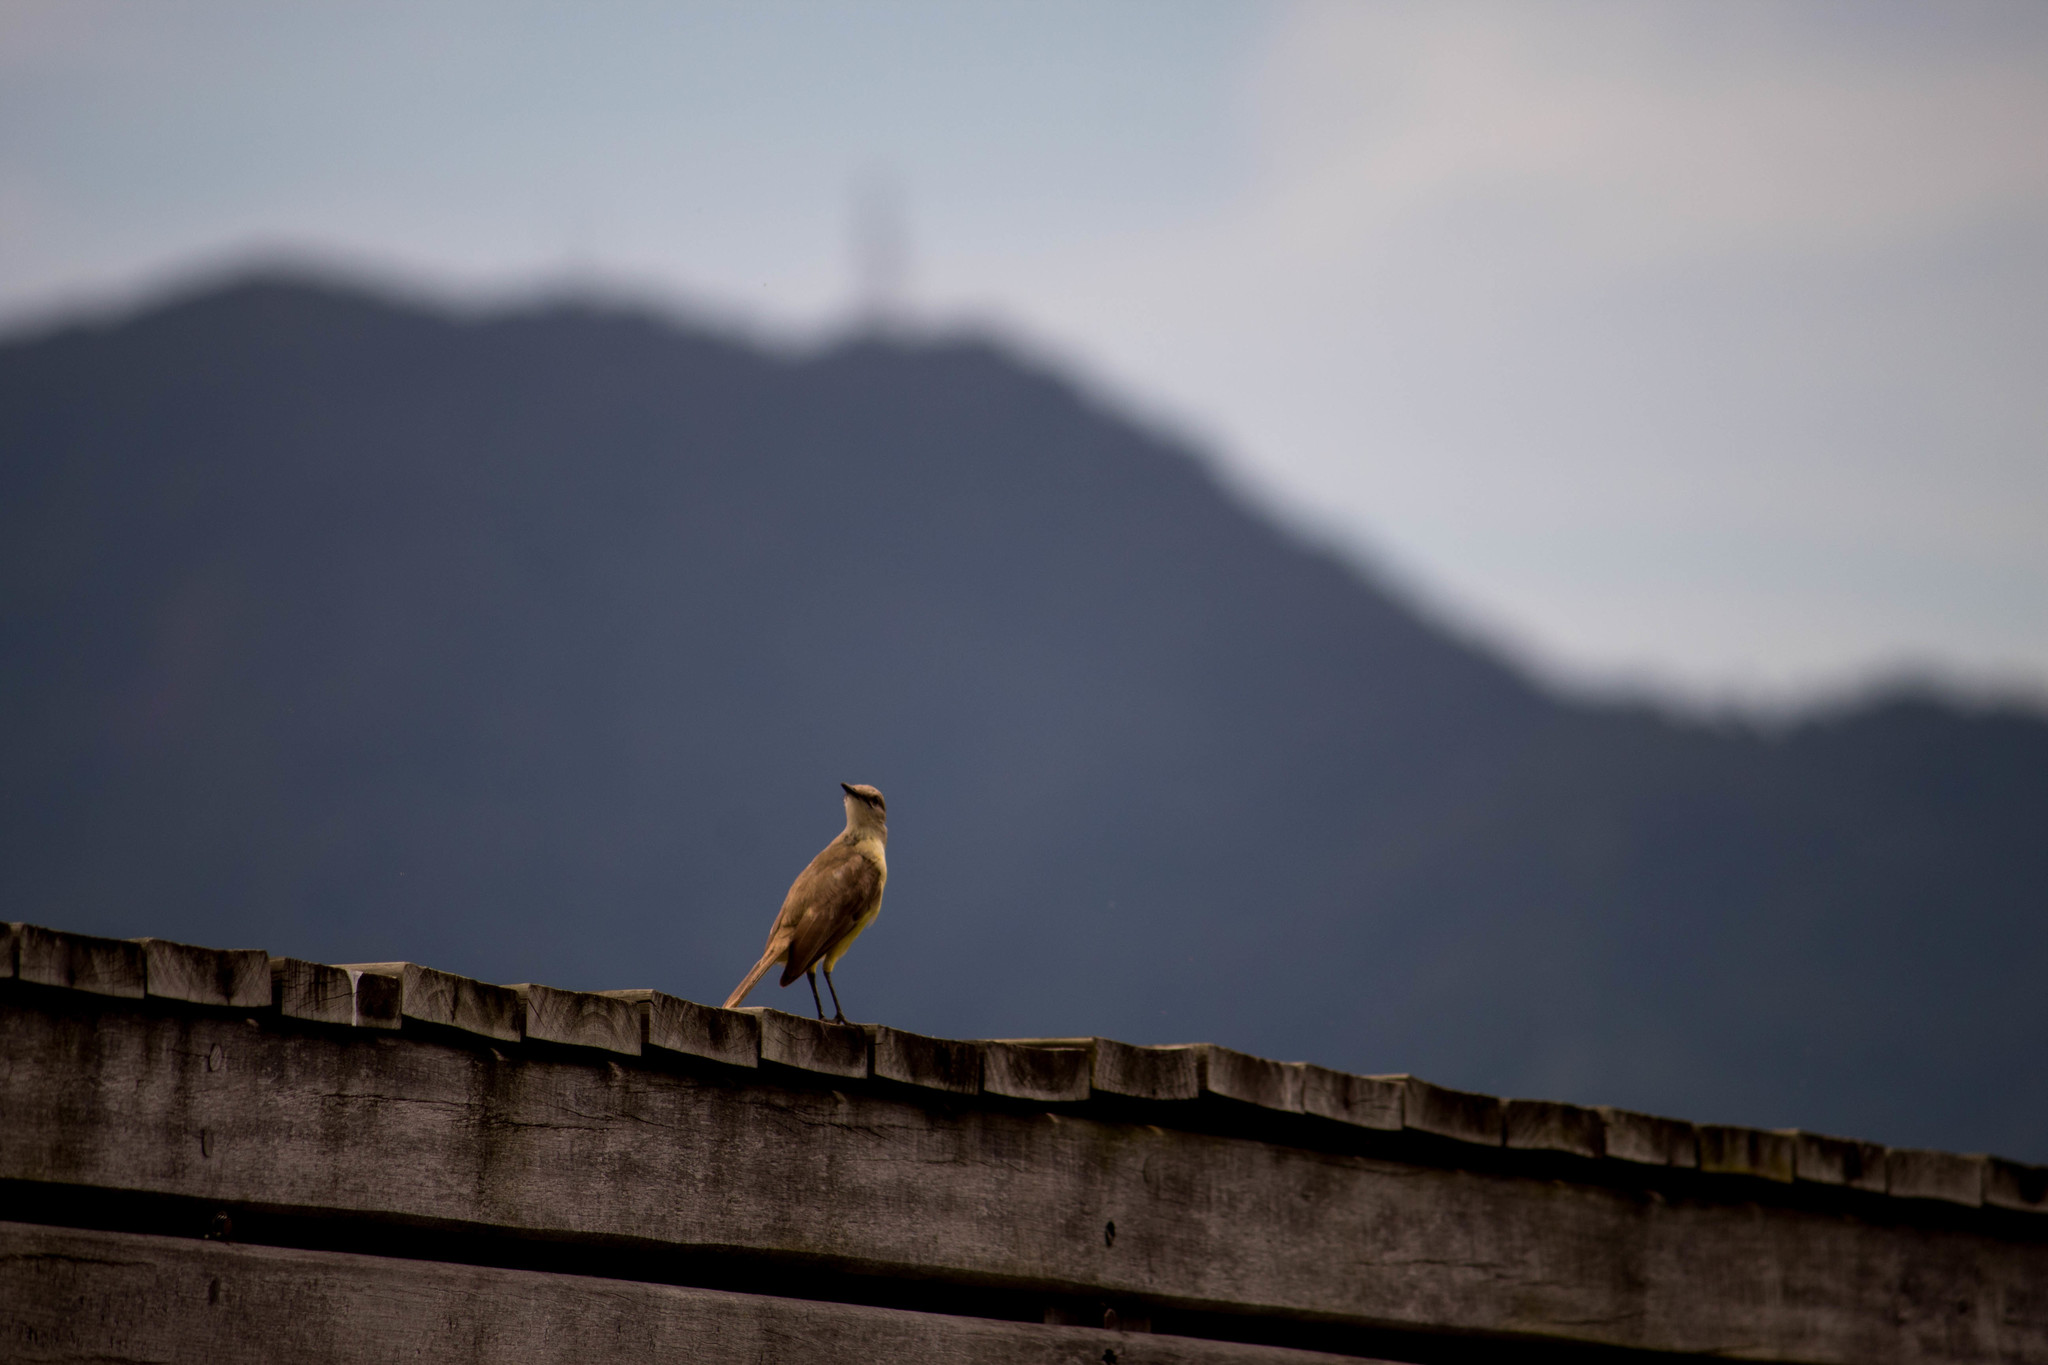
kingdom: Animalia
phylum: Chordata
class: Aves
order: Passeriformes
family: Tyrannidae
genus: Machetornis
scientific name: Machetornis rixosa
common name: Cattle tyrant
